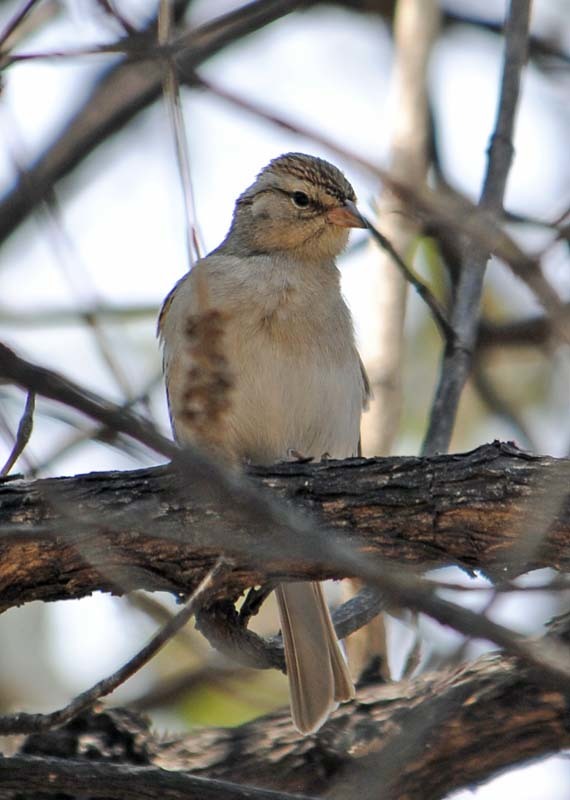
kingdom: Animalia
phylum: Chordata
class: Aves
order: Passeriformes
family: Passerellidae
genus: Spizella
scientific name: Spizella passerina
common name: Chipping sparrow
